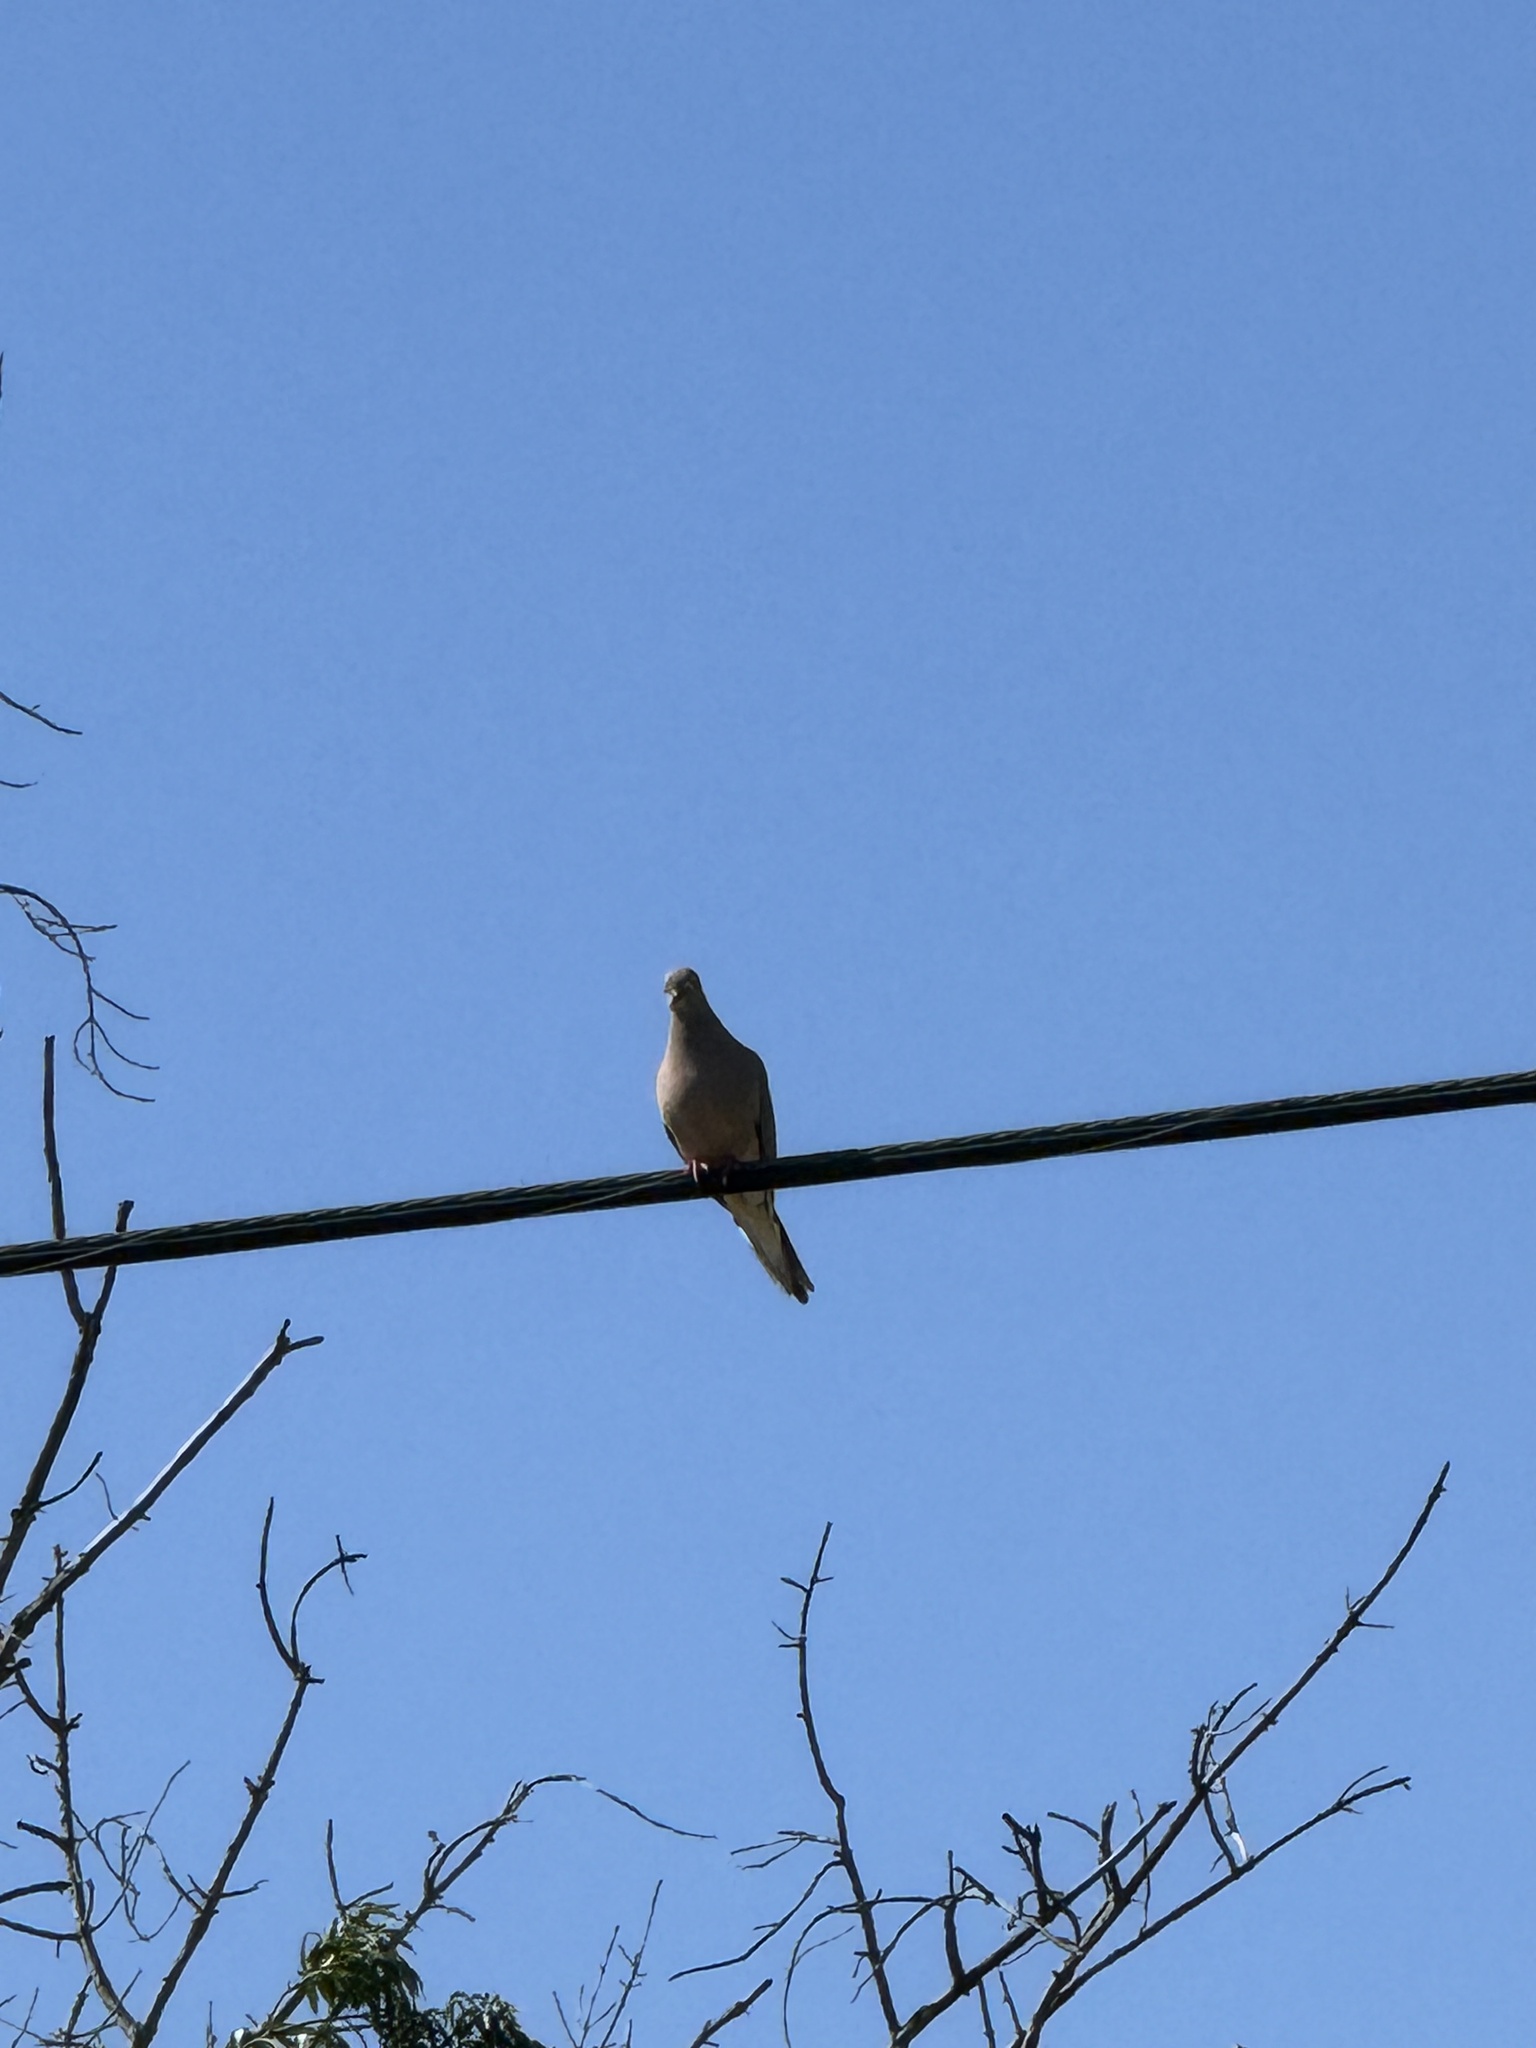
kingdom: Animalia
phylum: Chordata
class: Aves
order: Columbiformes
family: Columbidae
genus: Zenaida
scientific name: Zenaida macroura
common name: Mourning dove
